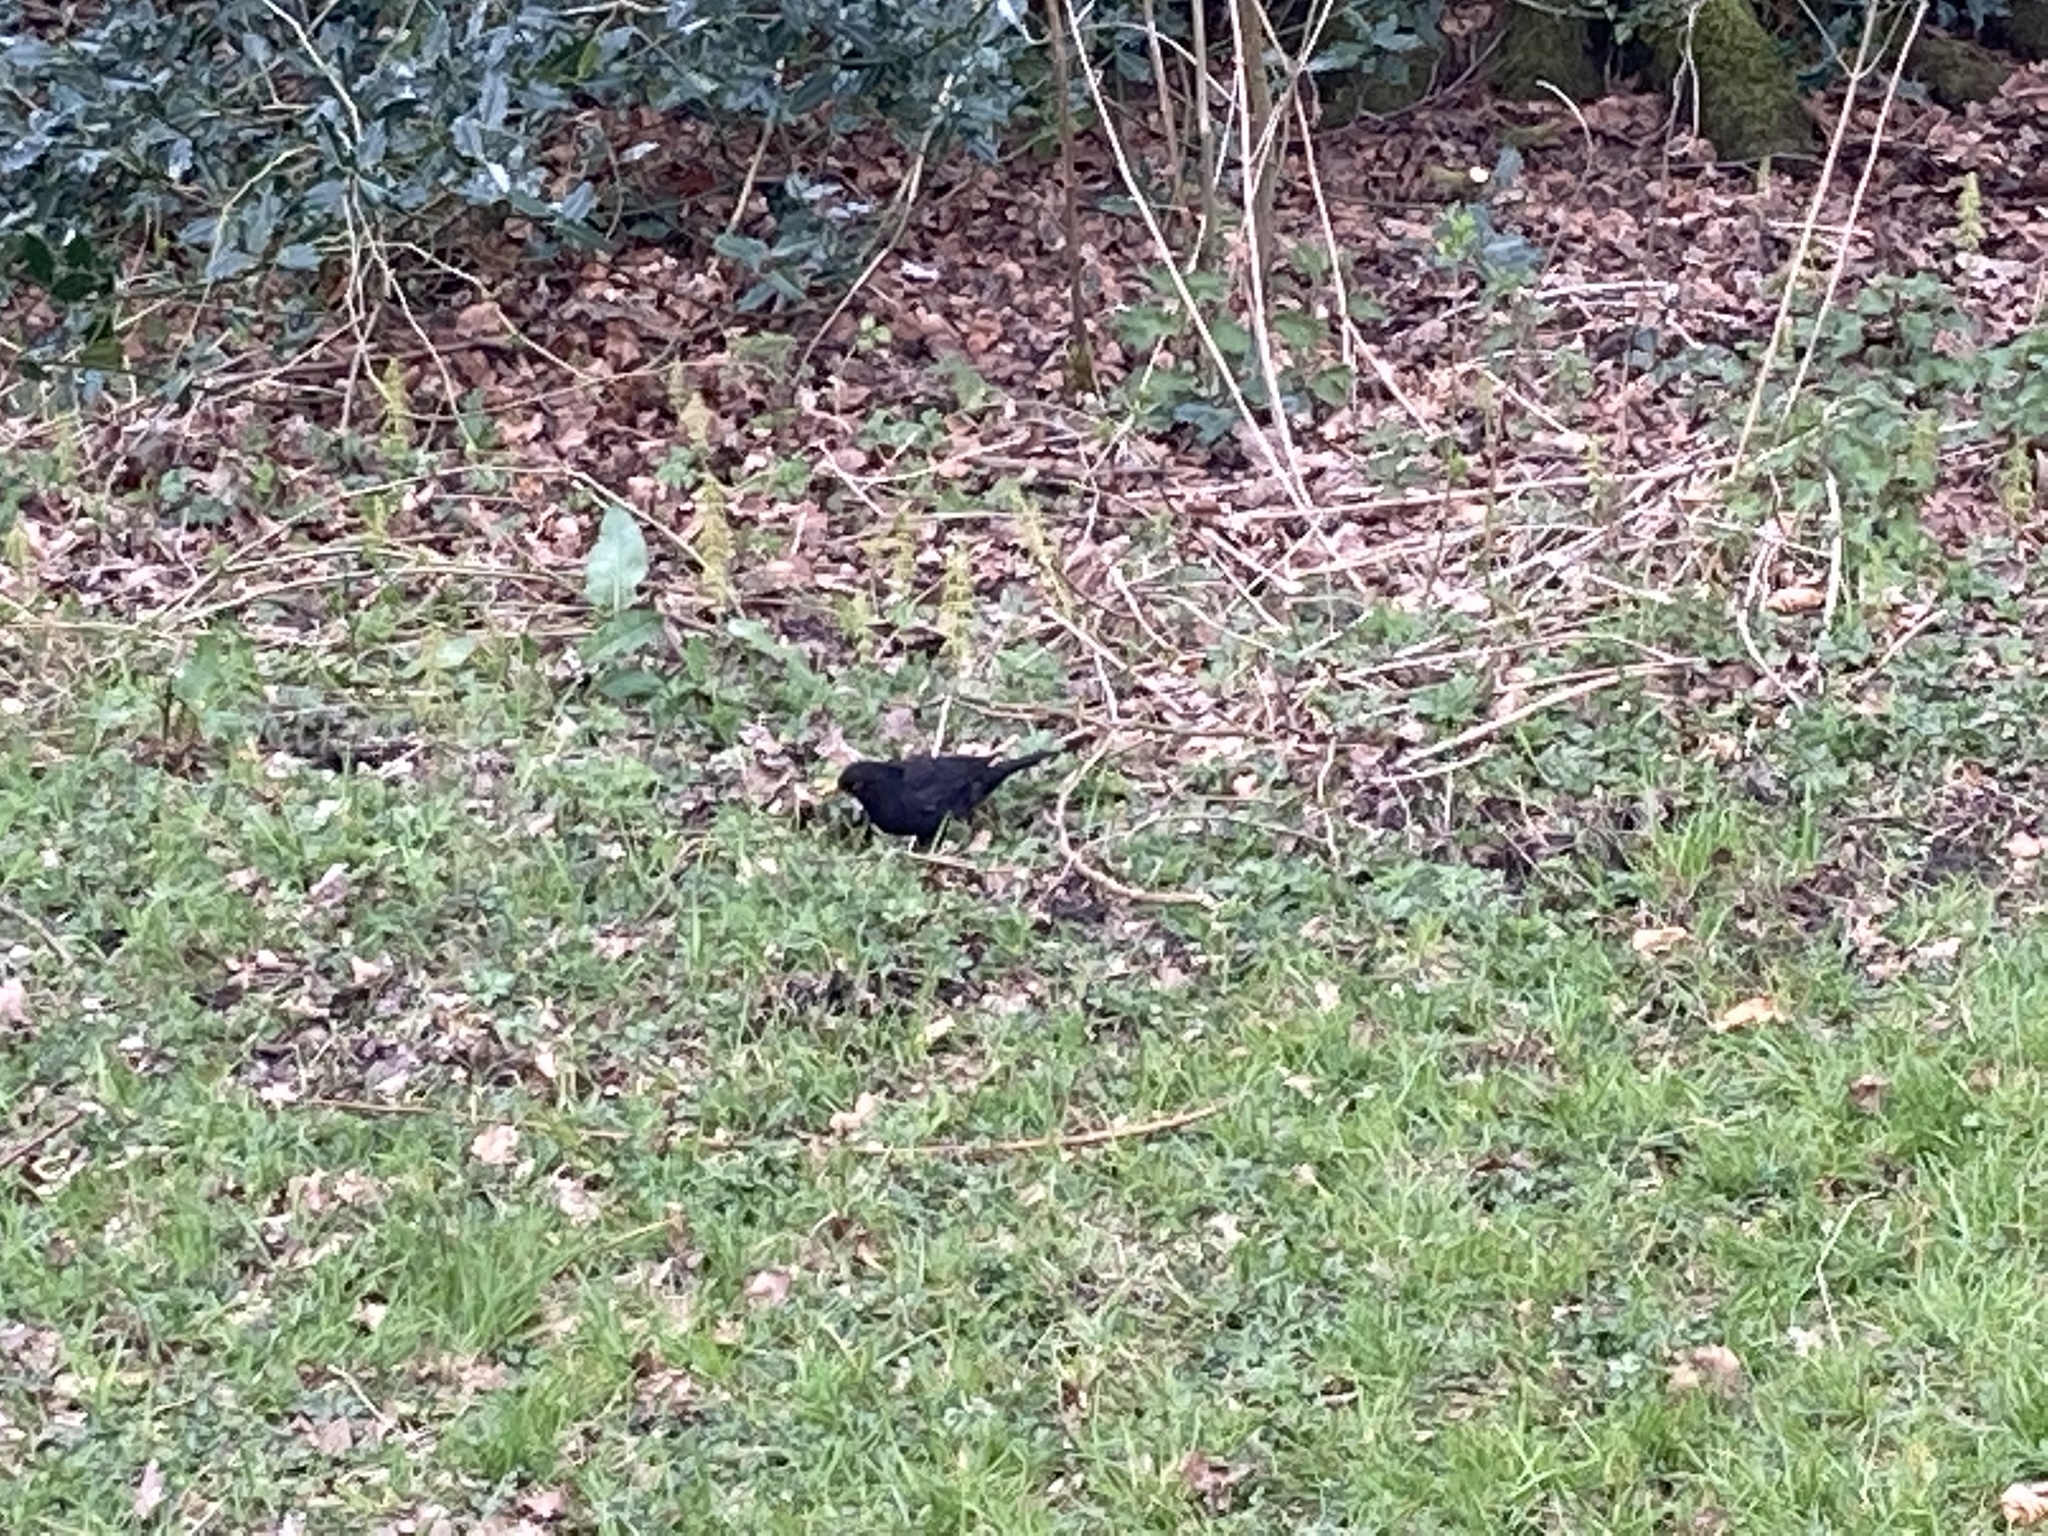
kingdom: Animalia
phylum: Chordata
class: Aves
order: Passeriformes
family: Turdidae
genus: Turdus
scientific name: Turdus merula
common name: Common blackbird
